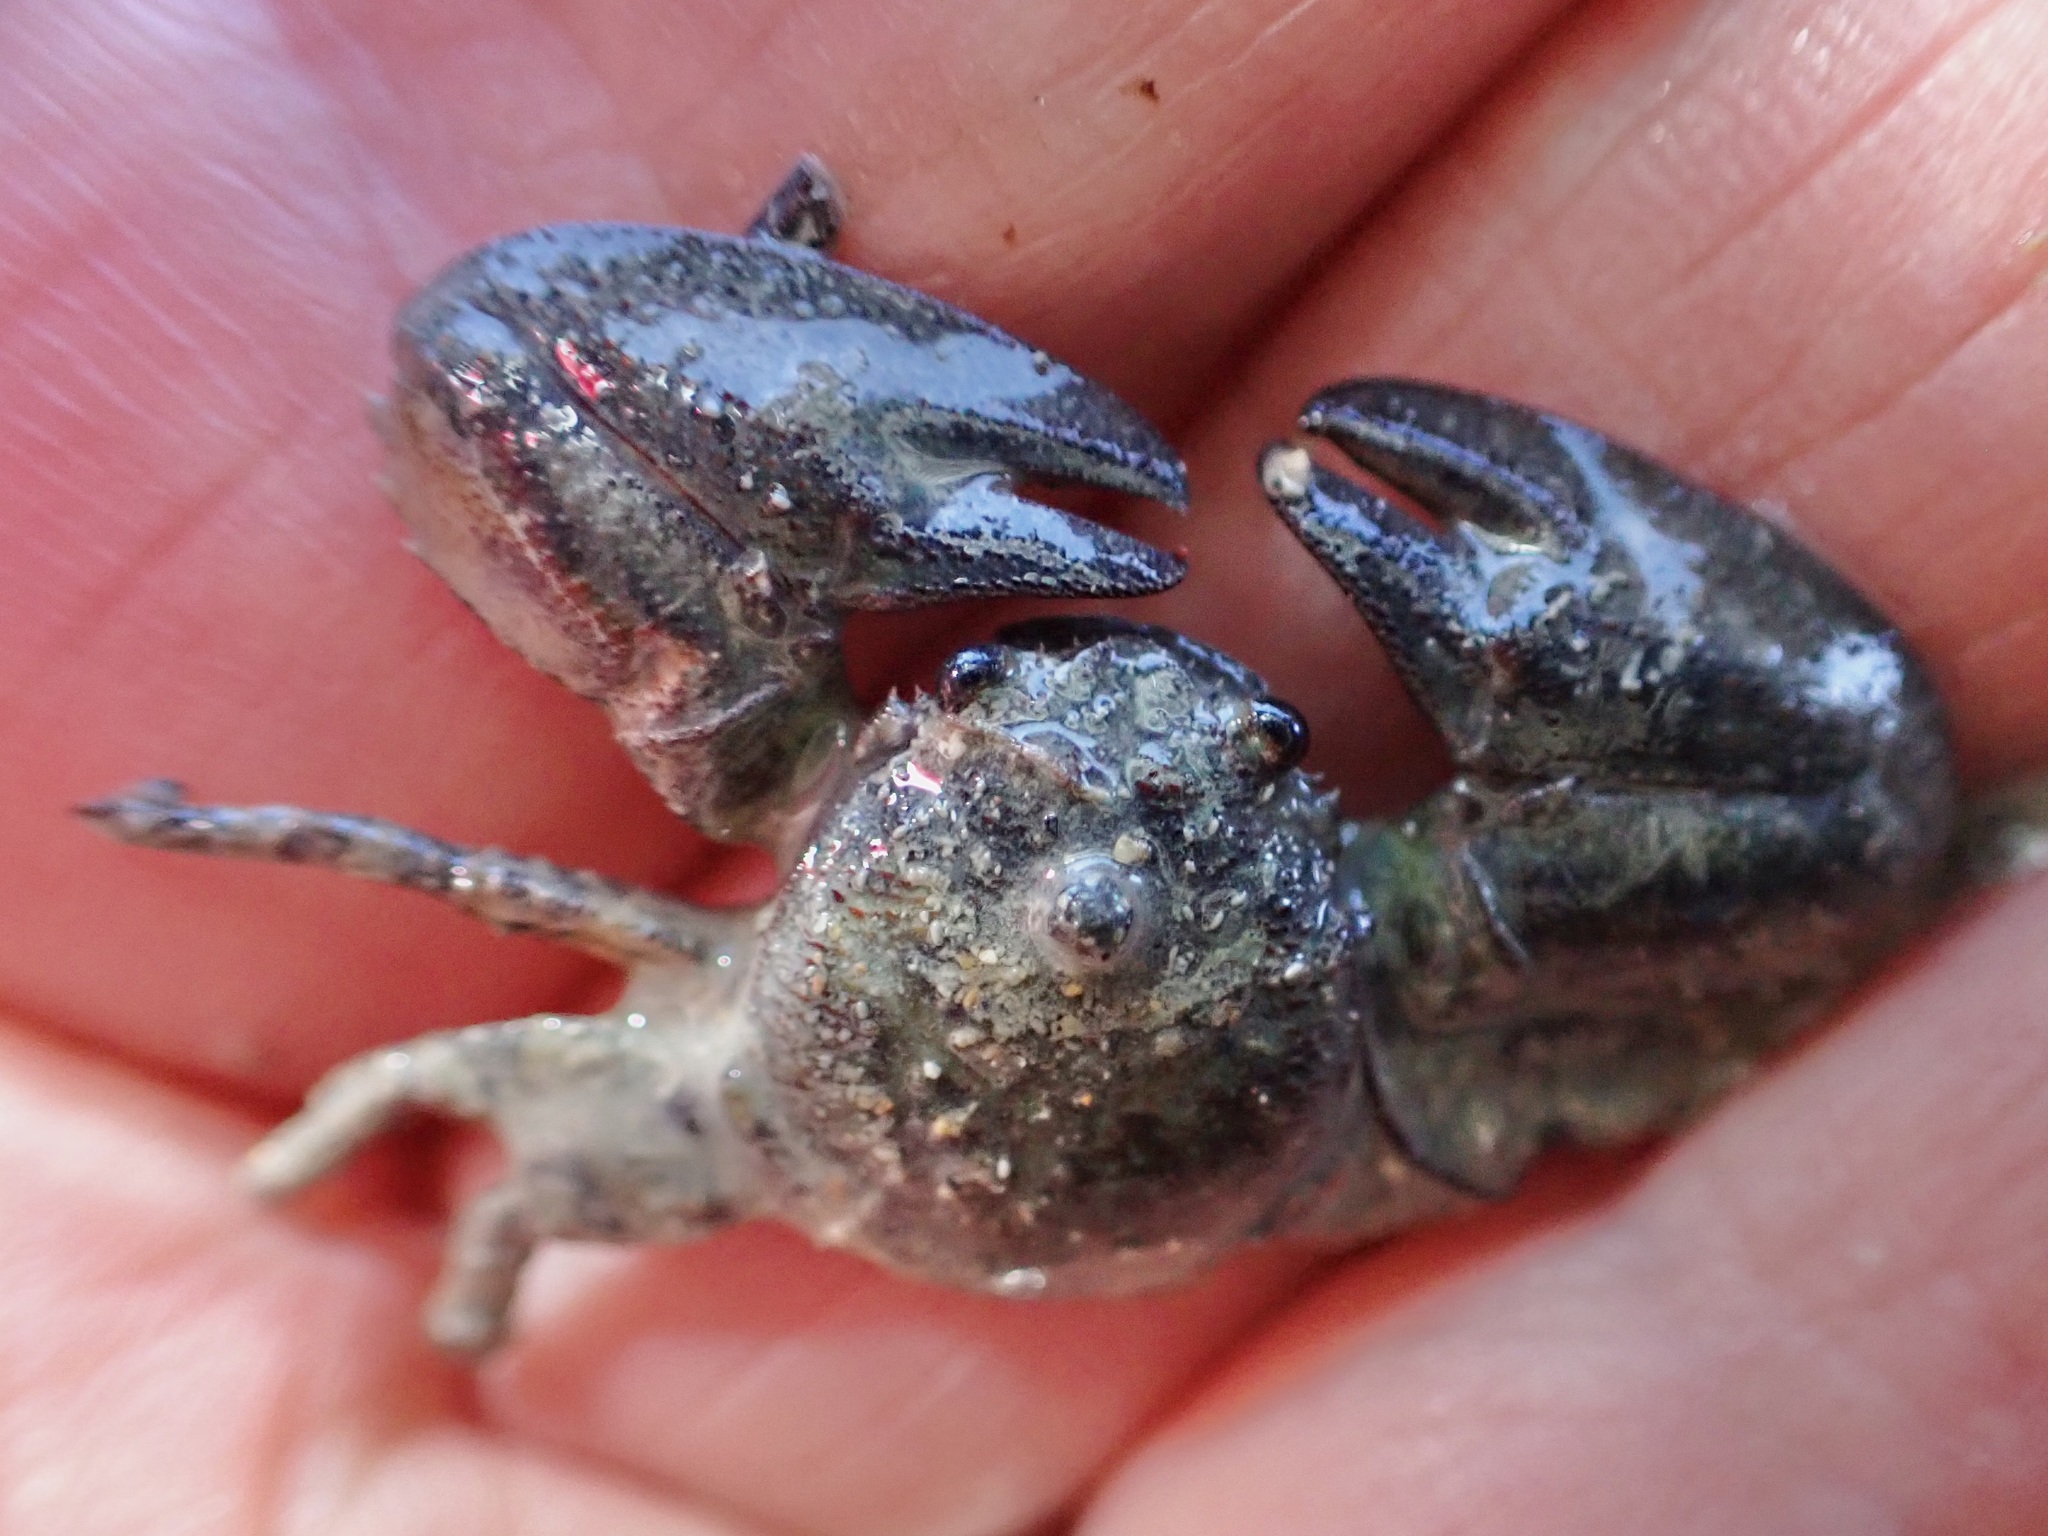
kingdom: Animalia
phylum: Arthropoda
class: Malacostraca
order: Decapoda
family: Porcellanidae
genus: Petrolisthes
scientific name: Petrolisthes elongatus
